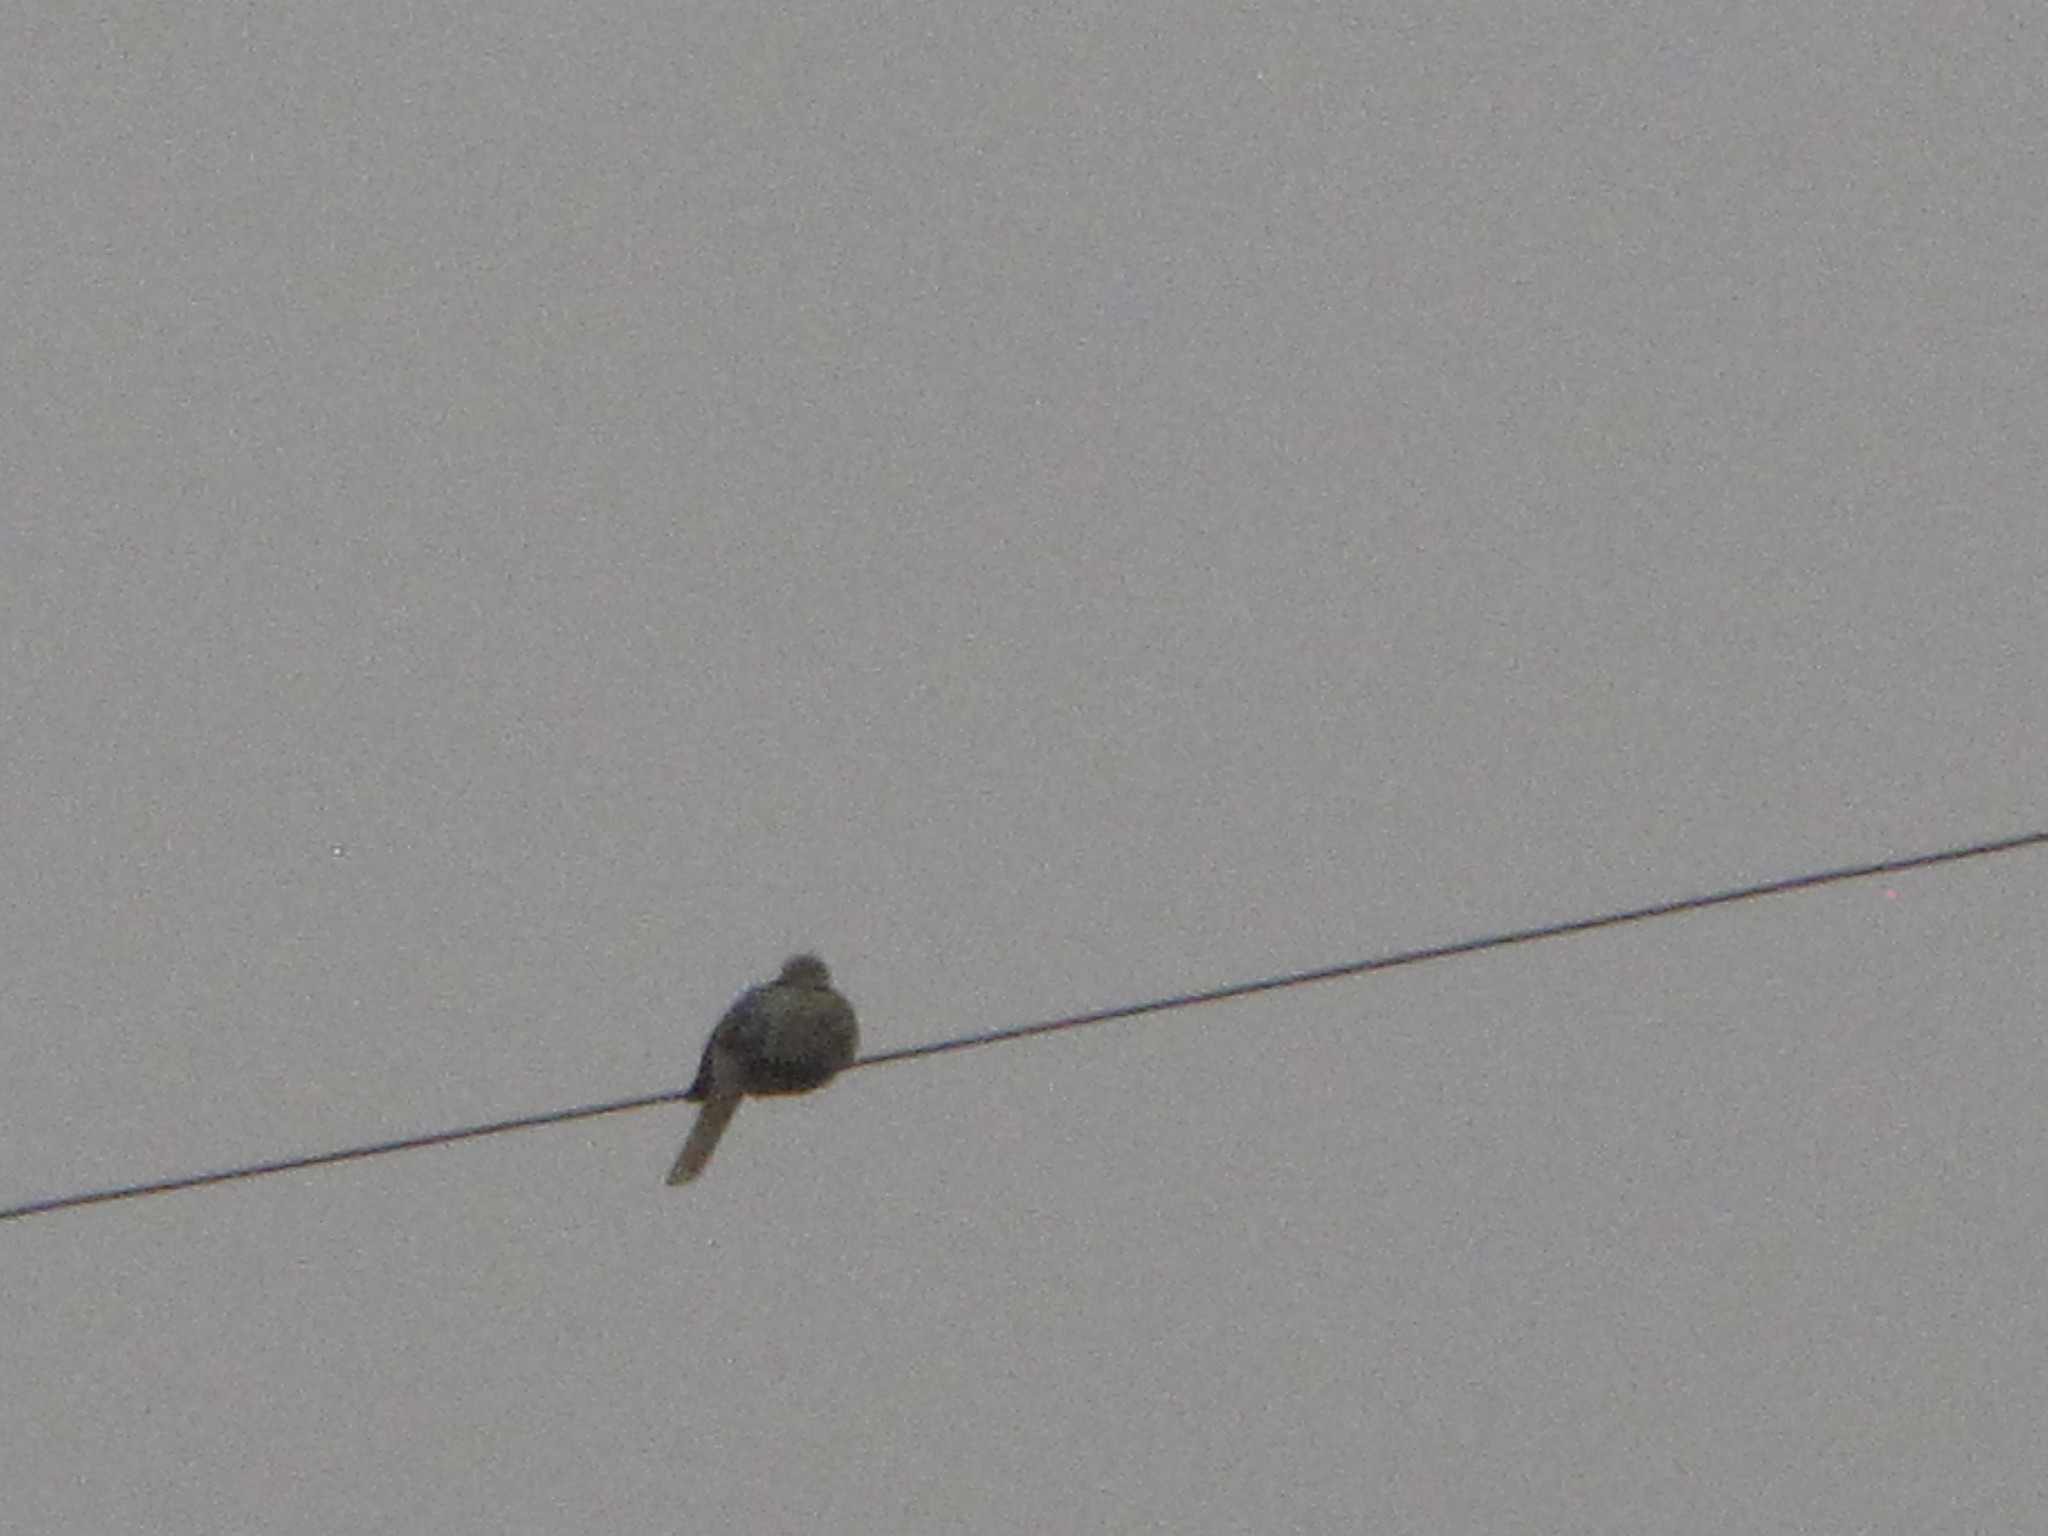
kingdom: Animalia
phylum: Chordata
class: Aves
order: Columbiformes
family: Columbidae
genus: Streptopelia
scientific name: Streptopelia decaocto
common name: Eurasian collared dove
